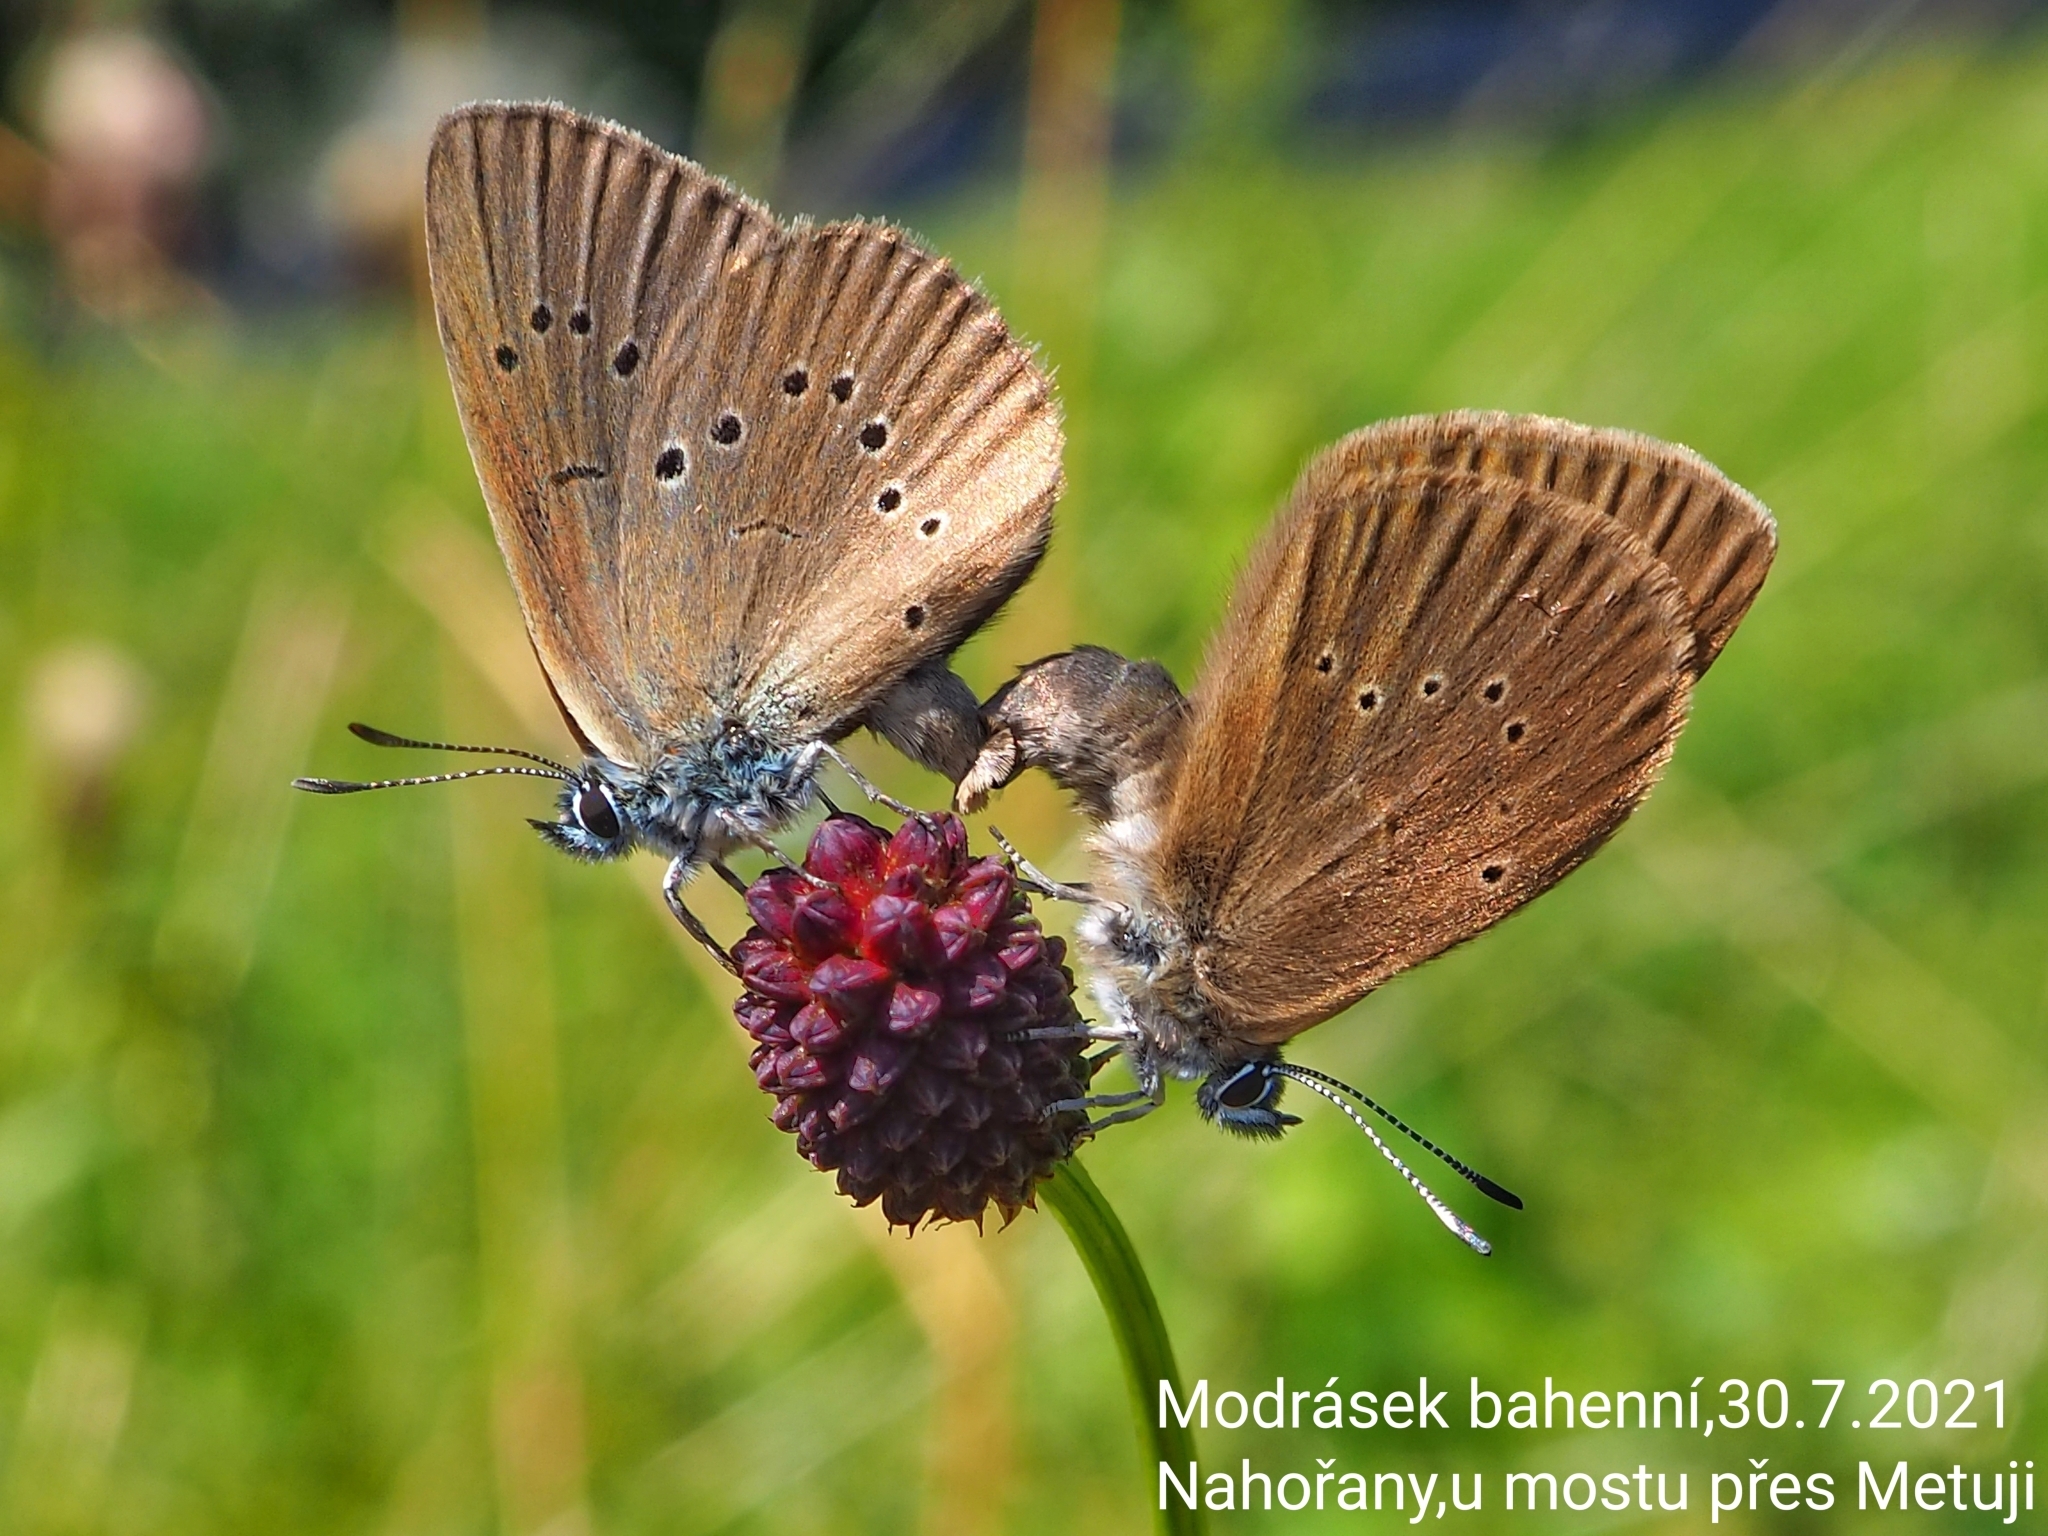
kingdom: Animalia
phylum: Arthropoda
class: Insecta
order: Lepidoptera
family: Lycaenidae
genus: Maculinea
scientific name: Maculinea nausithous
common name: Dusky large blue
